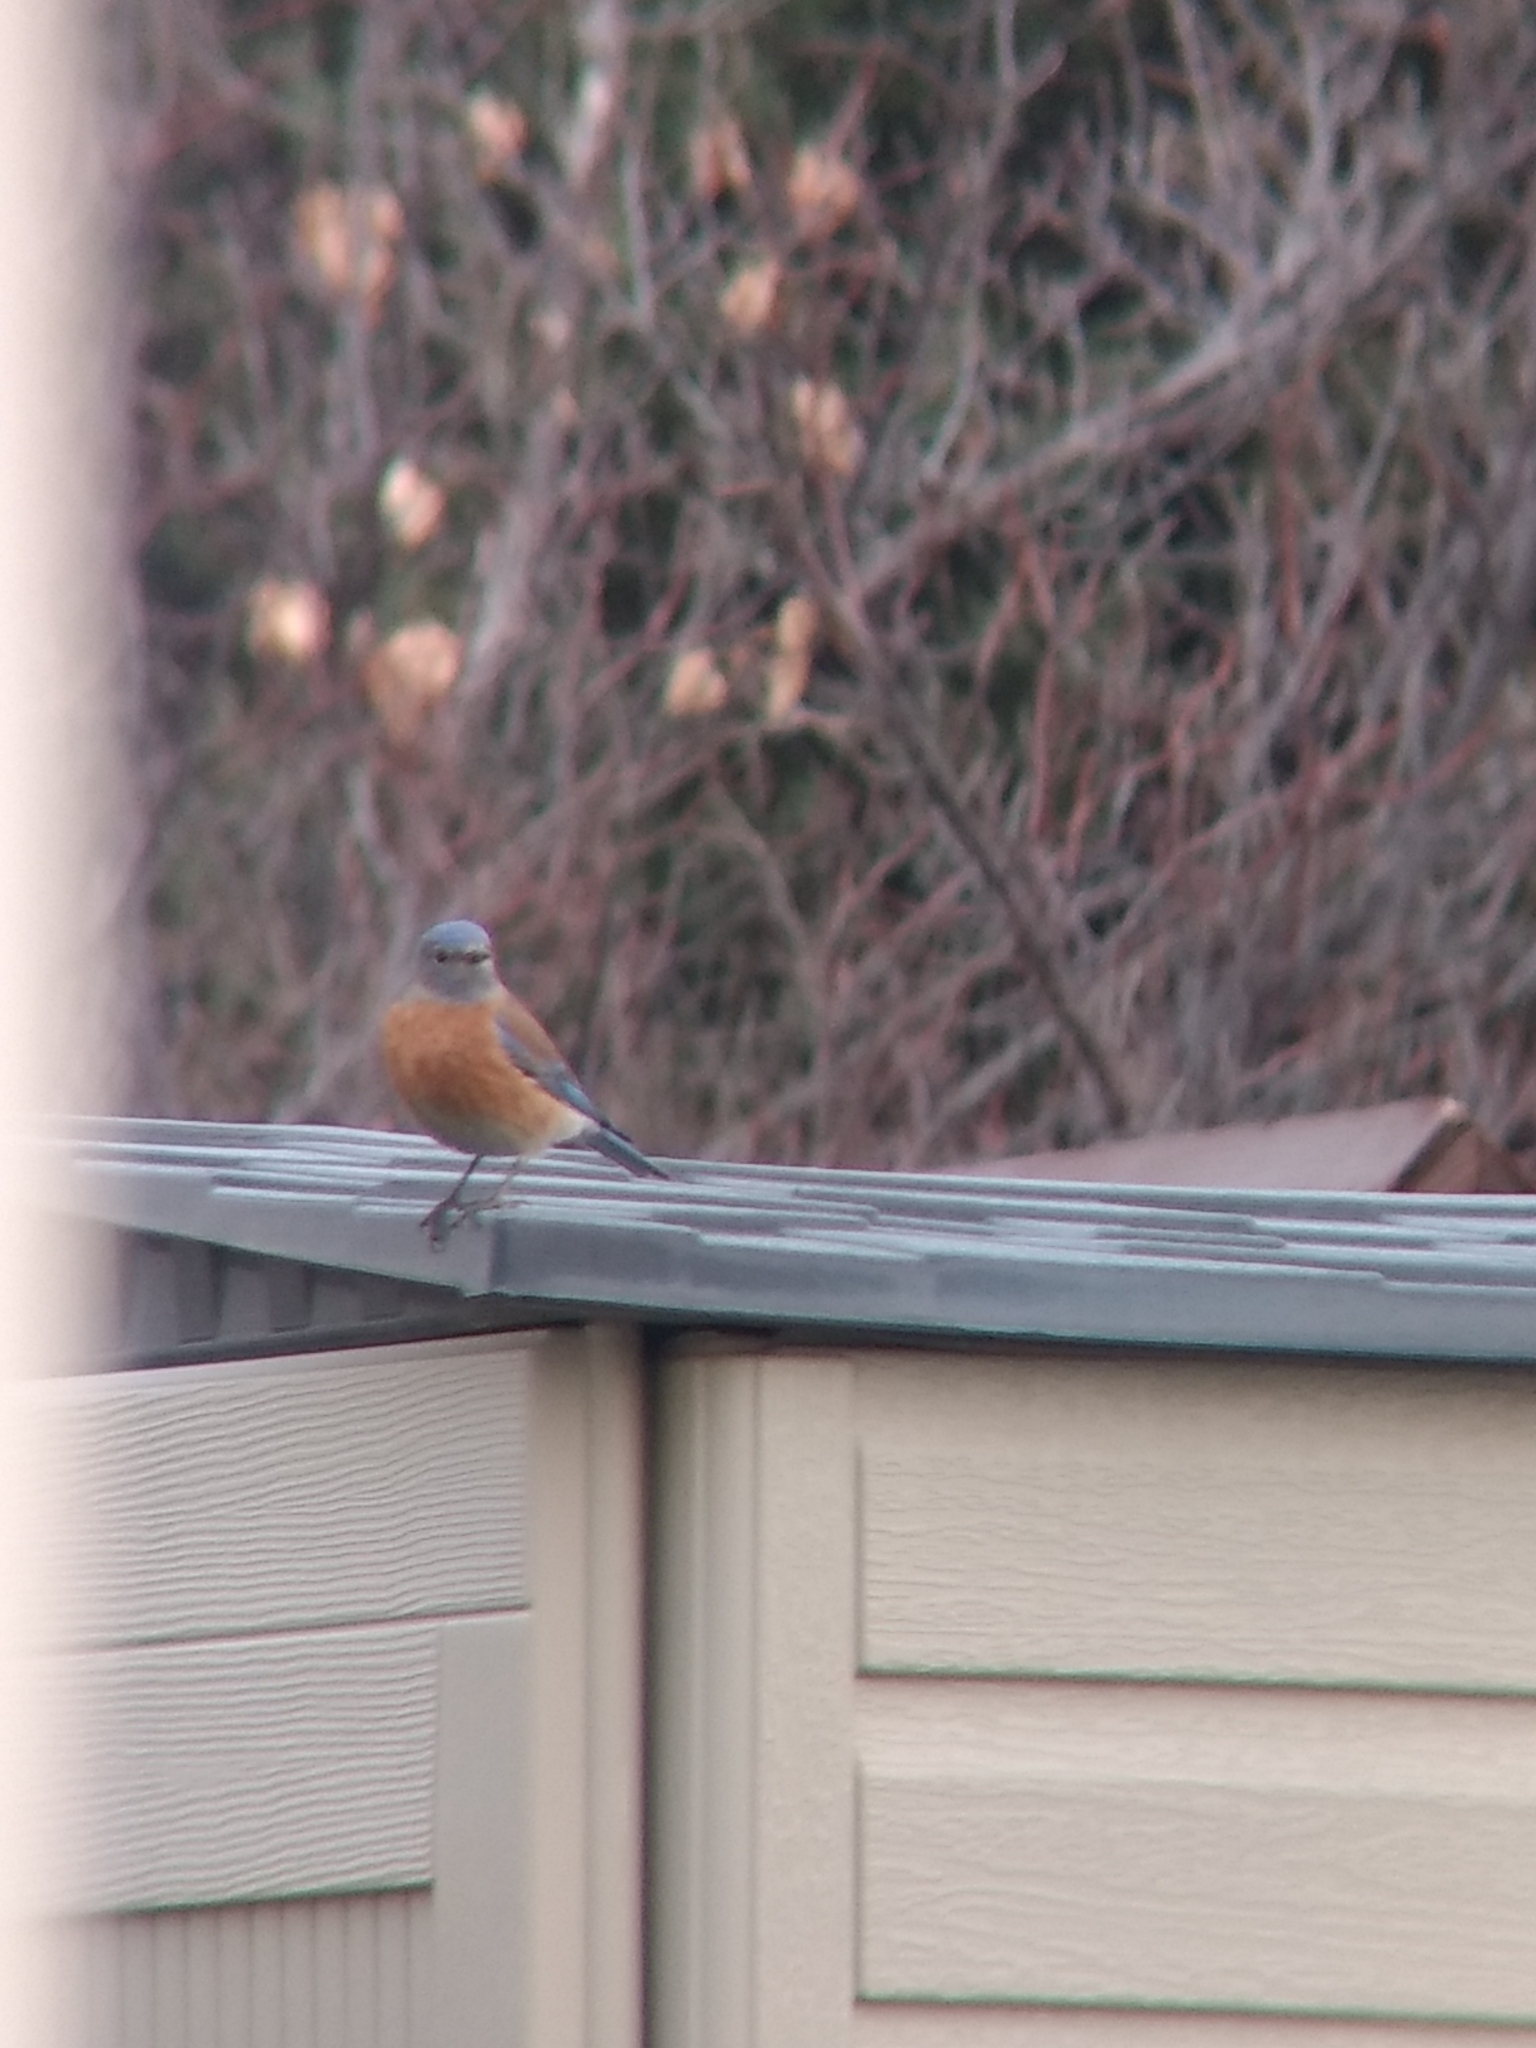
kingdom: Animalia
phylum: Chordata
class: Aves
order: Passeriformes
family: Turdidae
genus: Sialia
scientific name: Sialia mexicana
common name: Western bluebird
